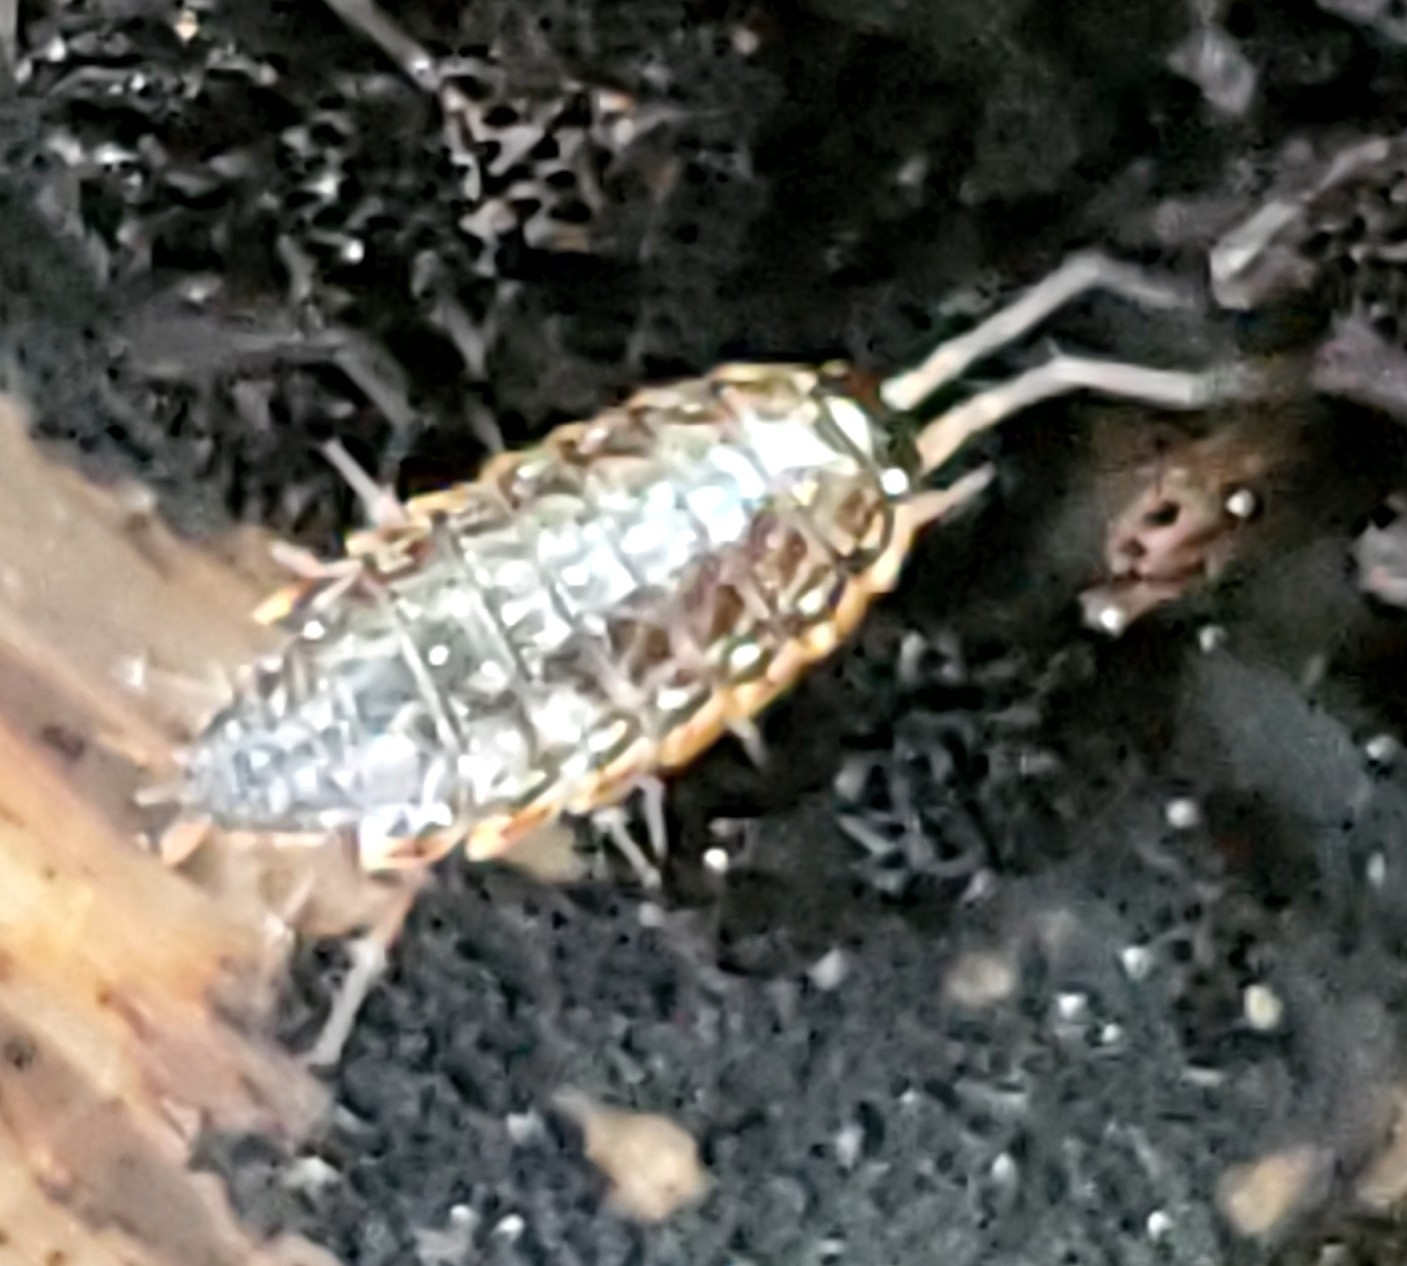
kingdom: Animalia
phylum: Arthropoda
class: Malacostraca
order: Isopoda
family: Philosciidae
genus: Philoscia
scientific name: Philoscia muscorum
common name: Common striped woodlouse
